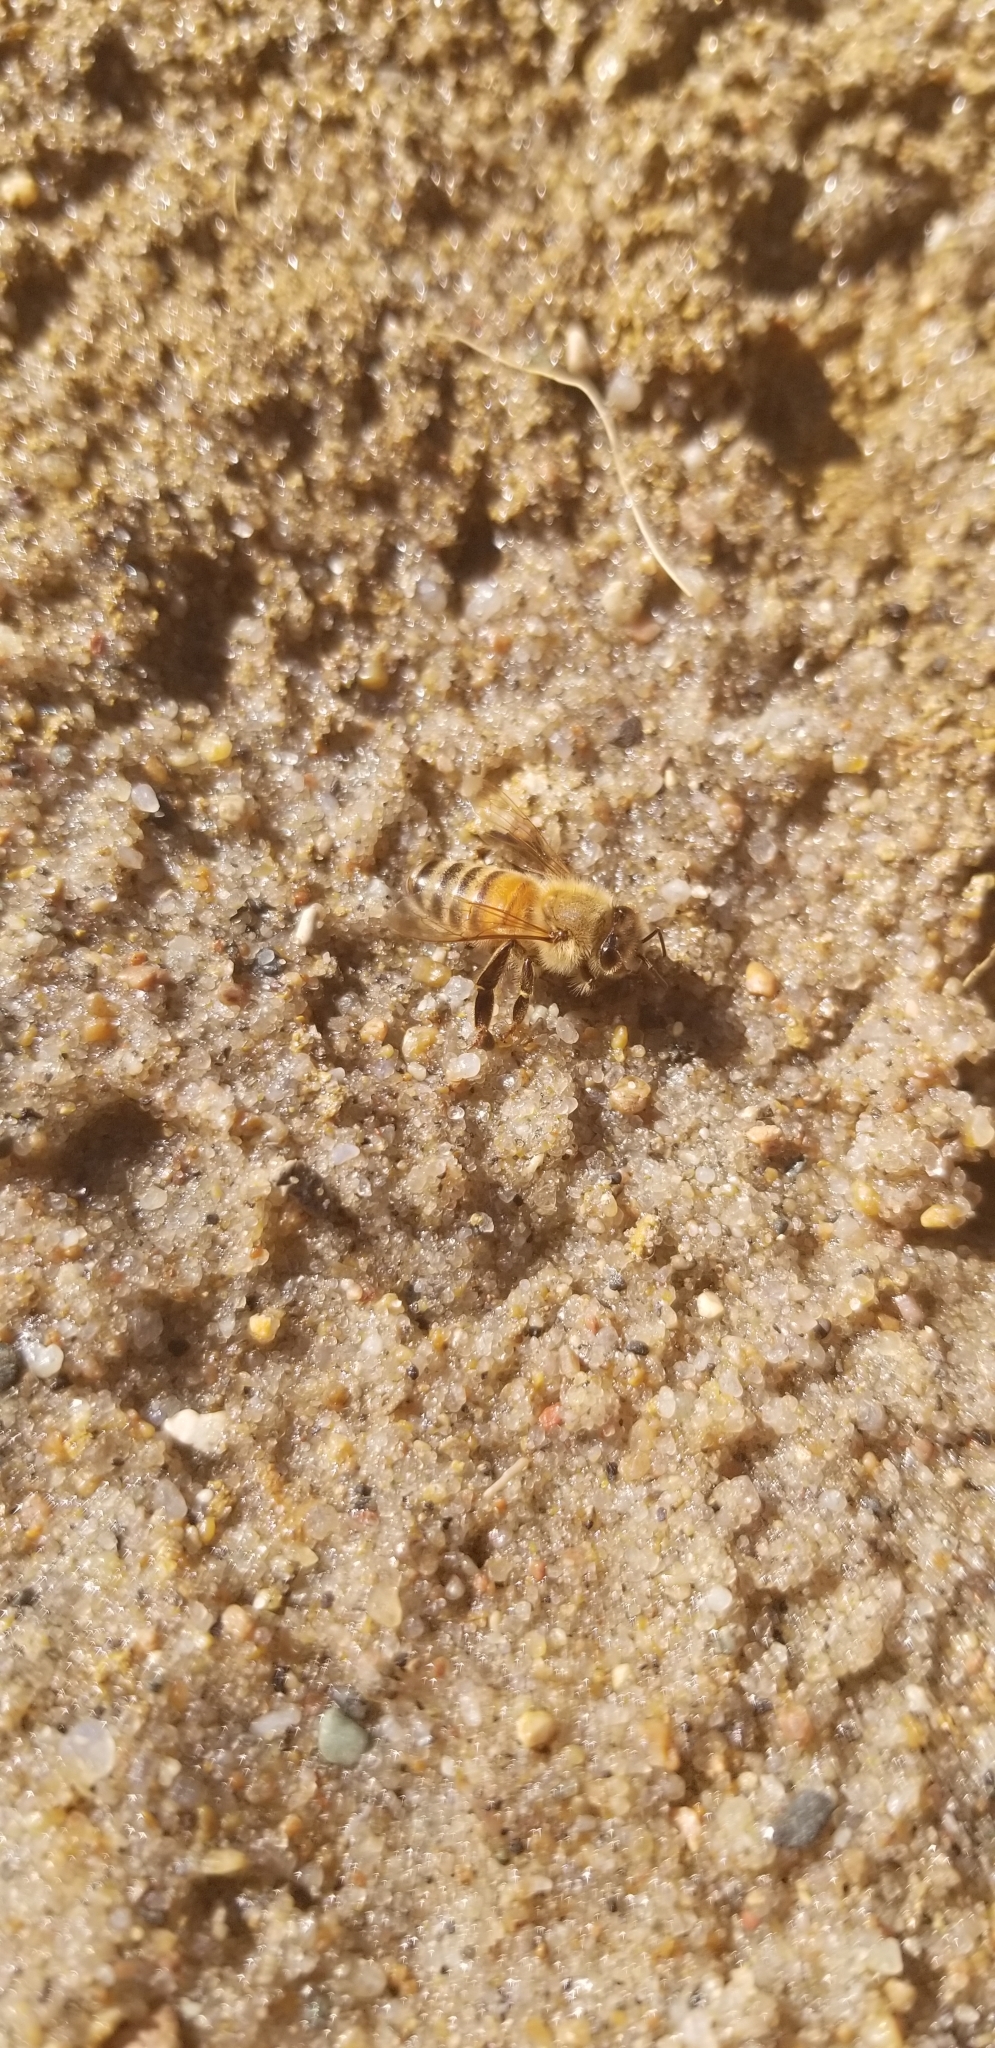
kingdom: Animalia
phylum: Arthropoda
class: Insecta
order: Hymenoptera
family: Apidae
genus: Apis
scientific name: Apis mellifera
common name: Honey bee
